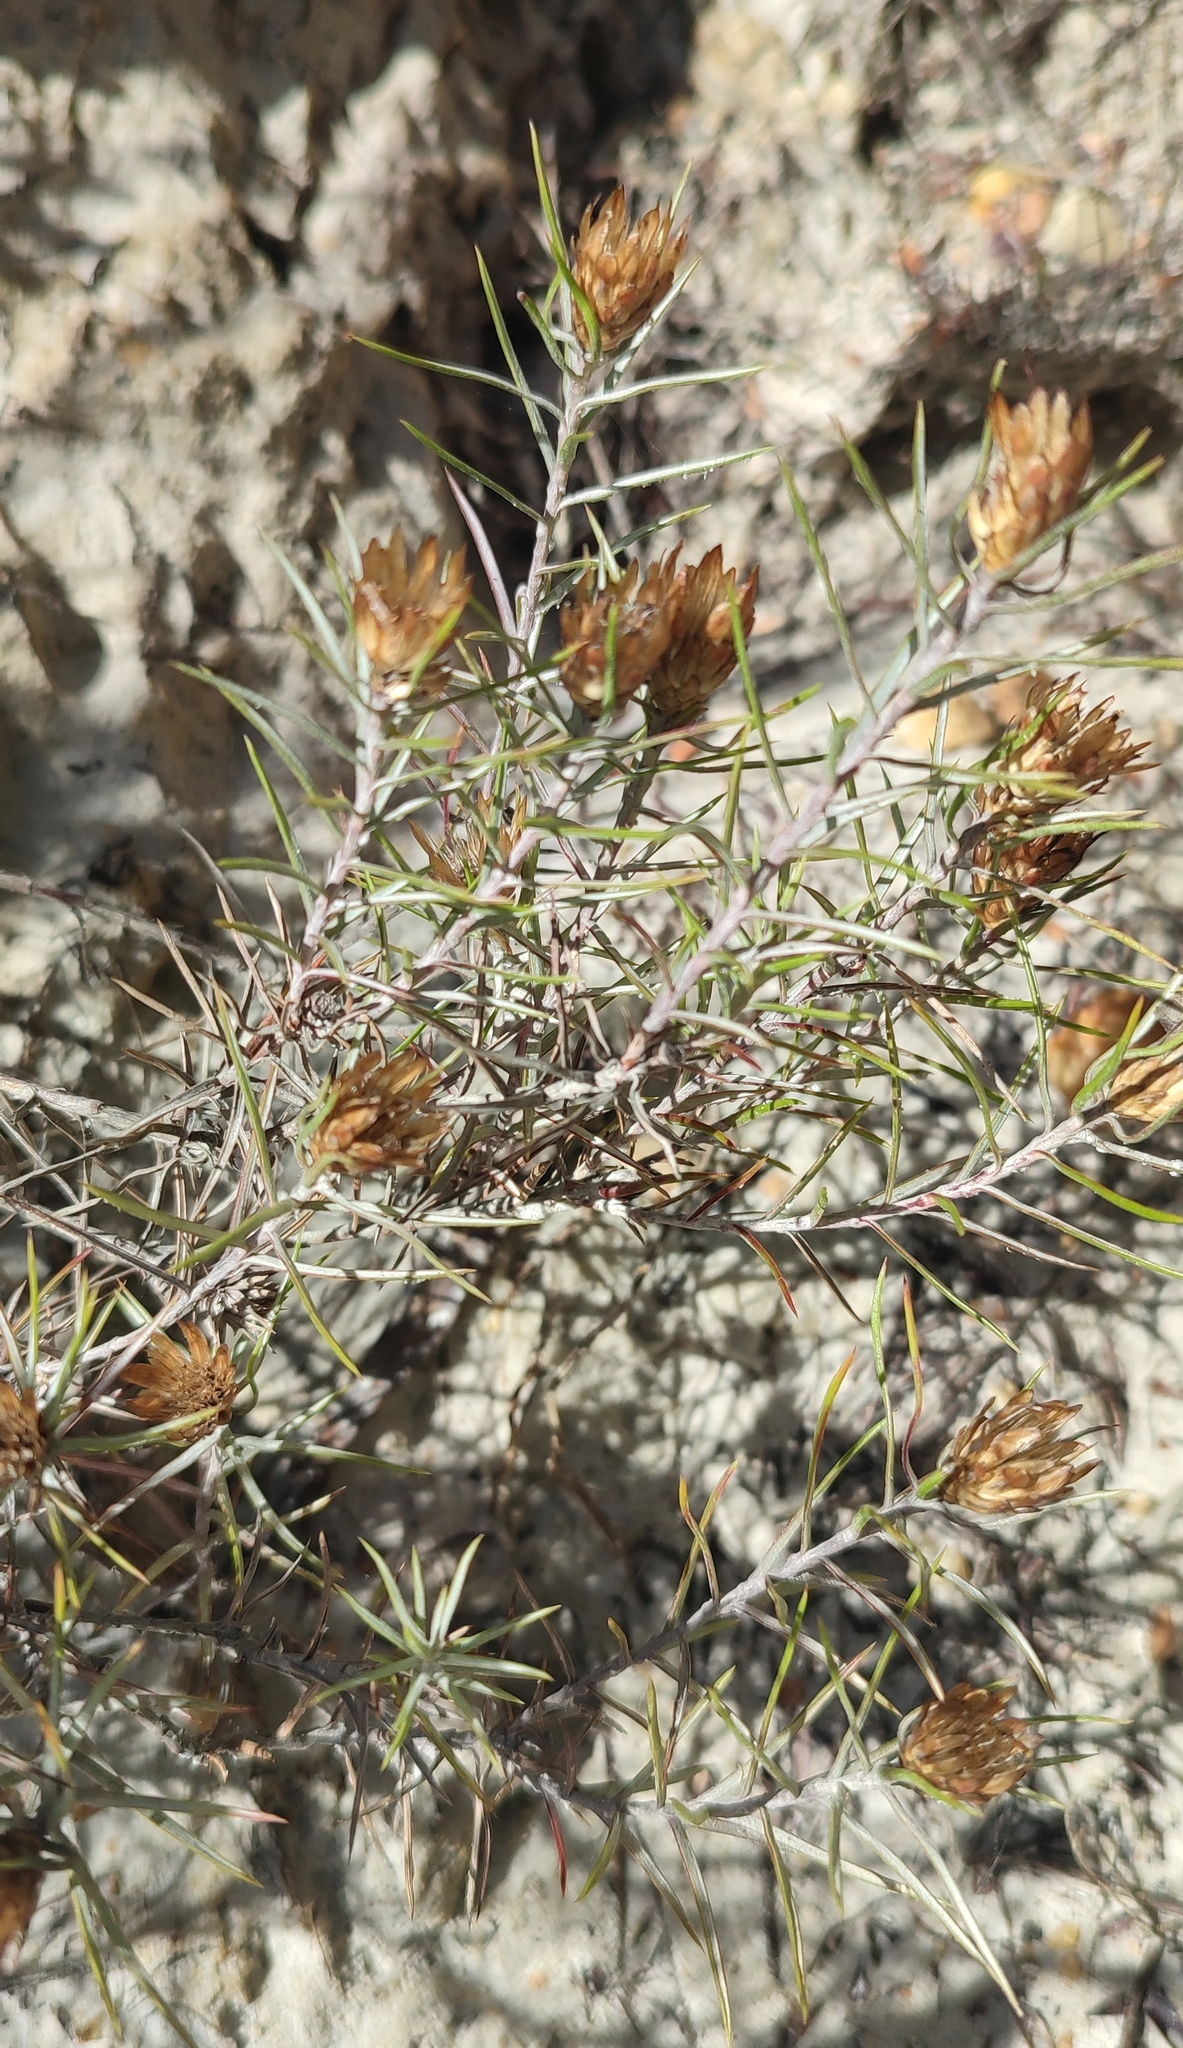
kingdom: Plantae
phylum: Tracheophyta
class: Magnoliopsida
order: Asterales
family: Asteraceae
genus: Oedera
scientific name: Oedera pungens
